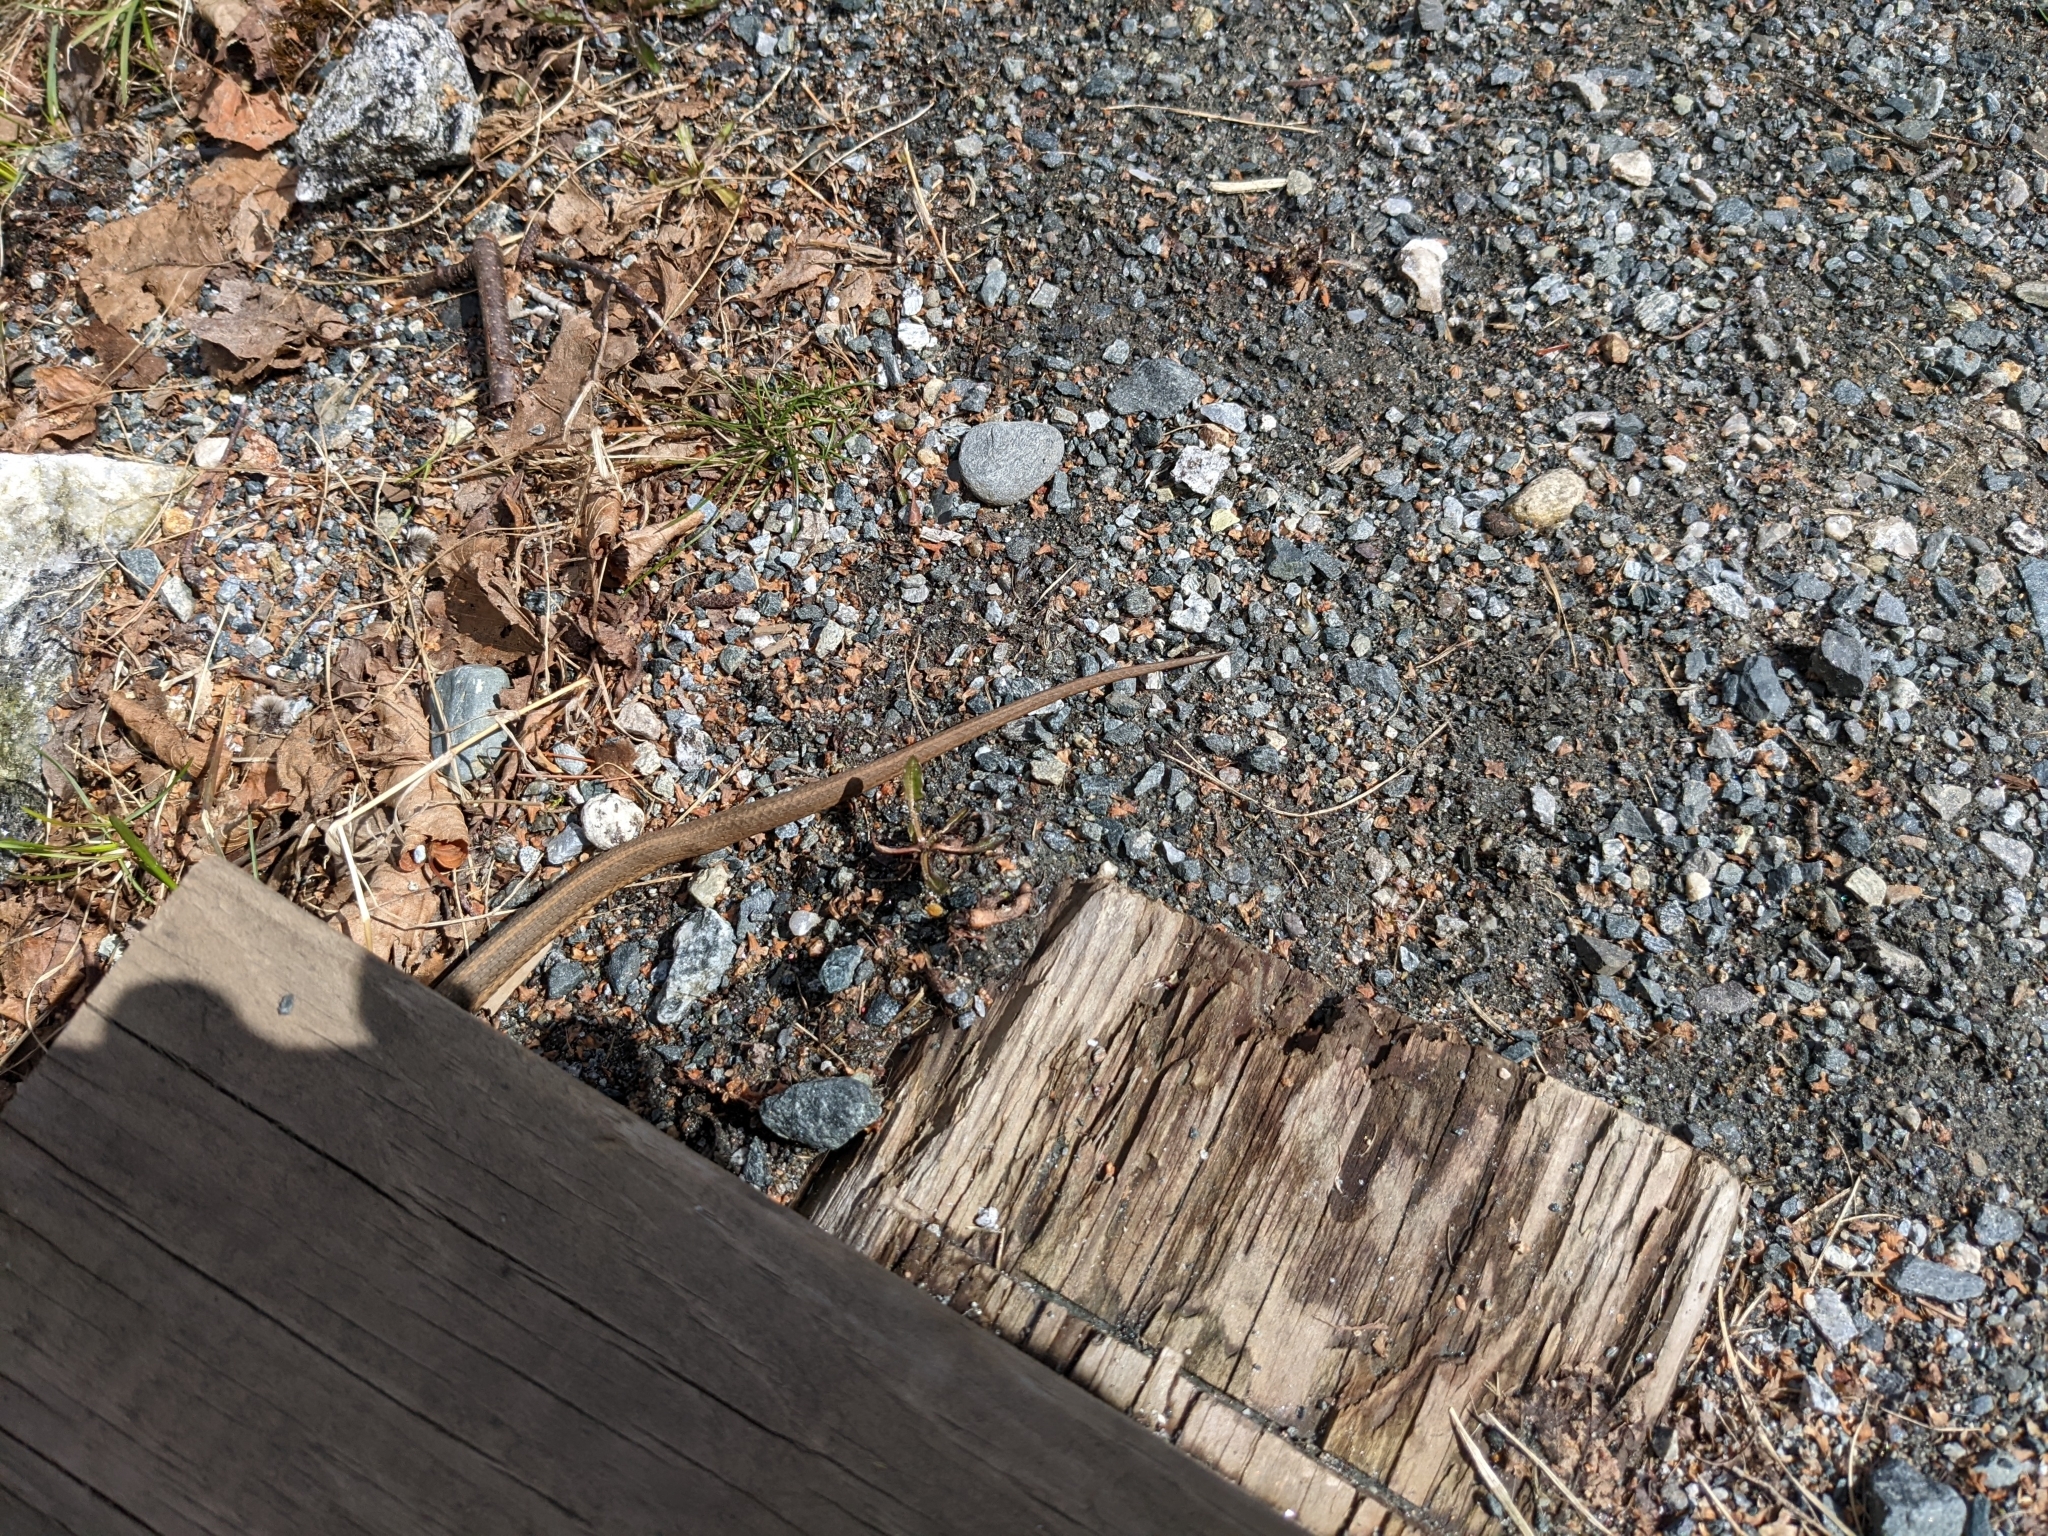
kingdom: Animalia
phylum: Chordata
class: Squamata
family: Colubridae
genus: Thamnophis
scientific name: Thamnophis sirtalis
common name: Common garter snake
